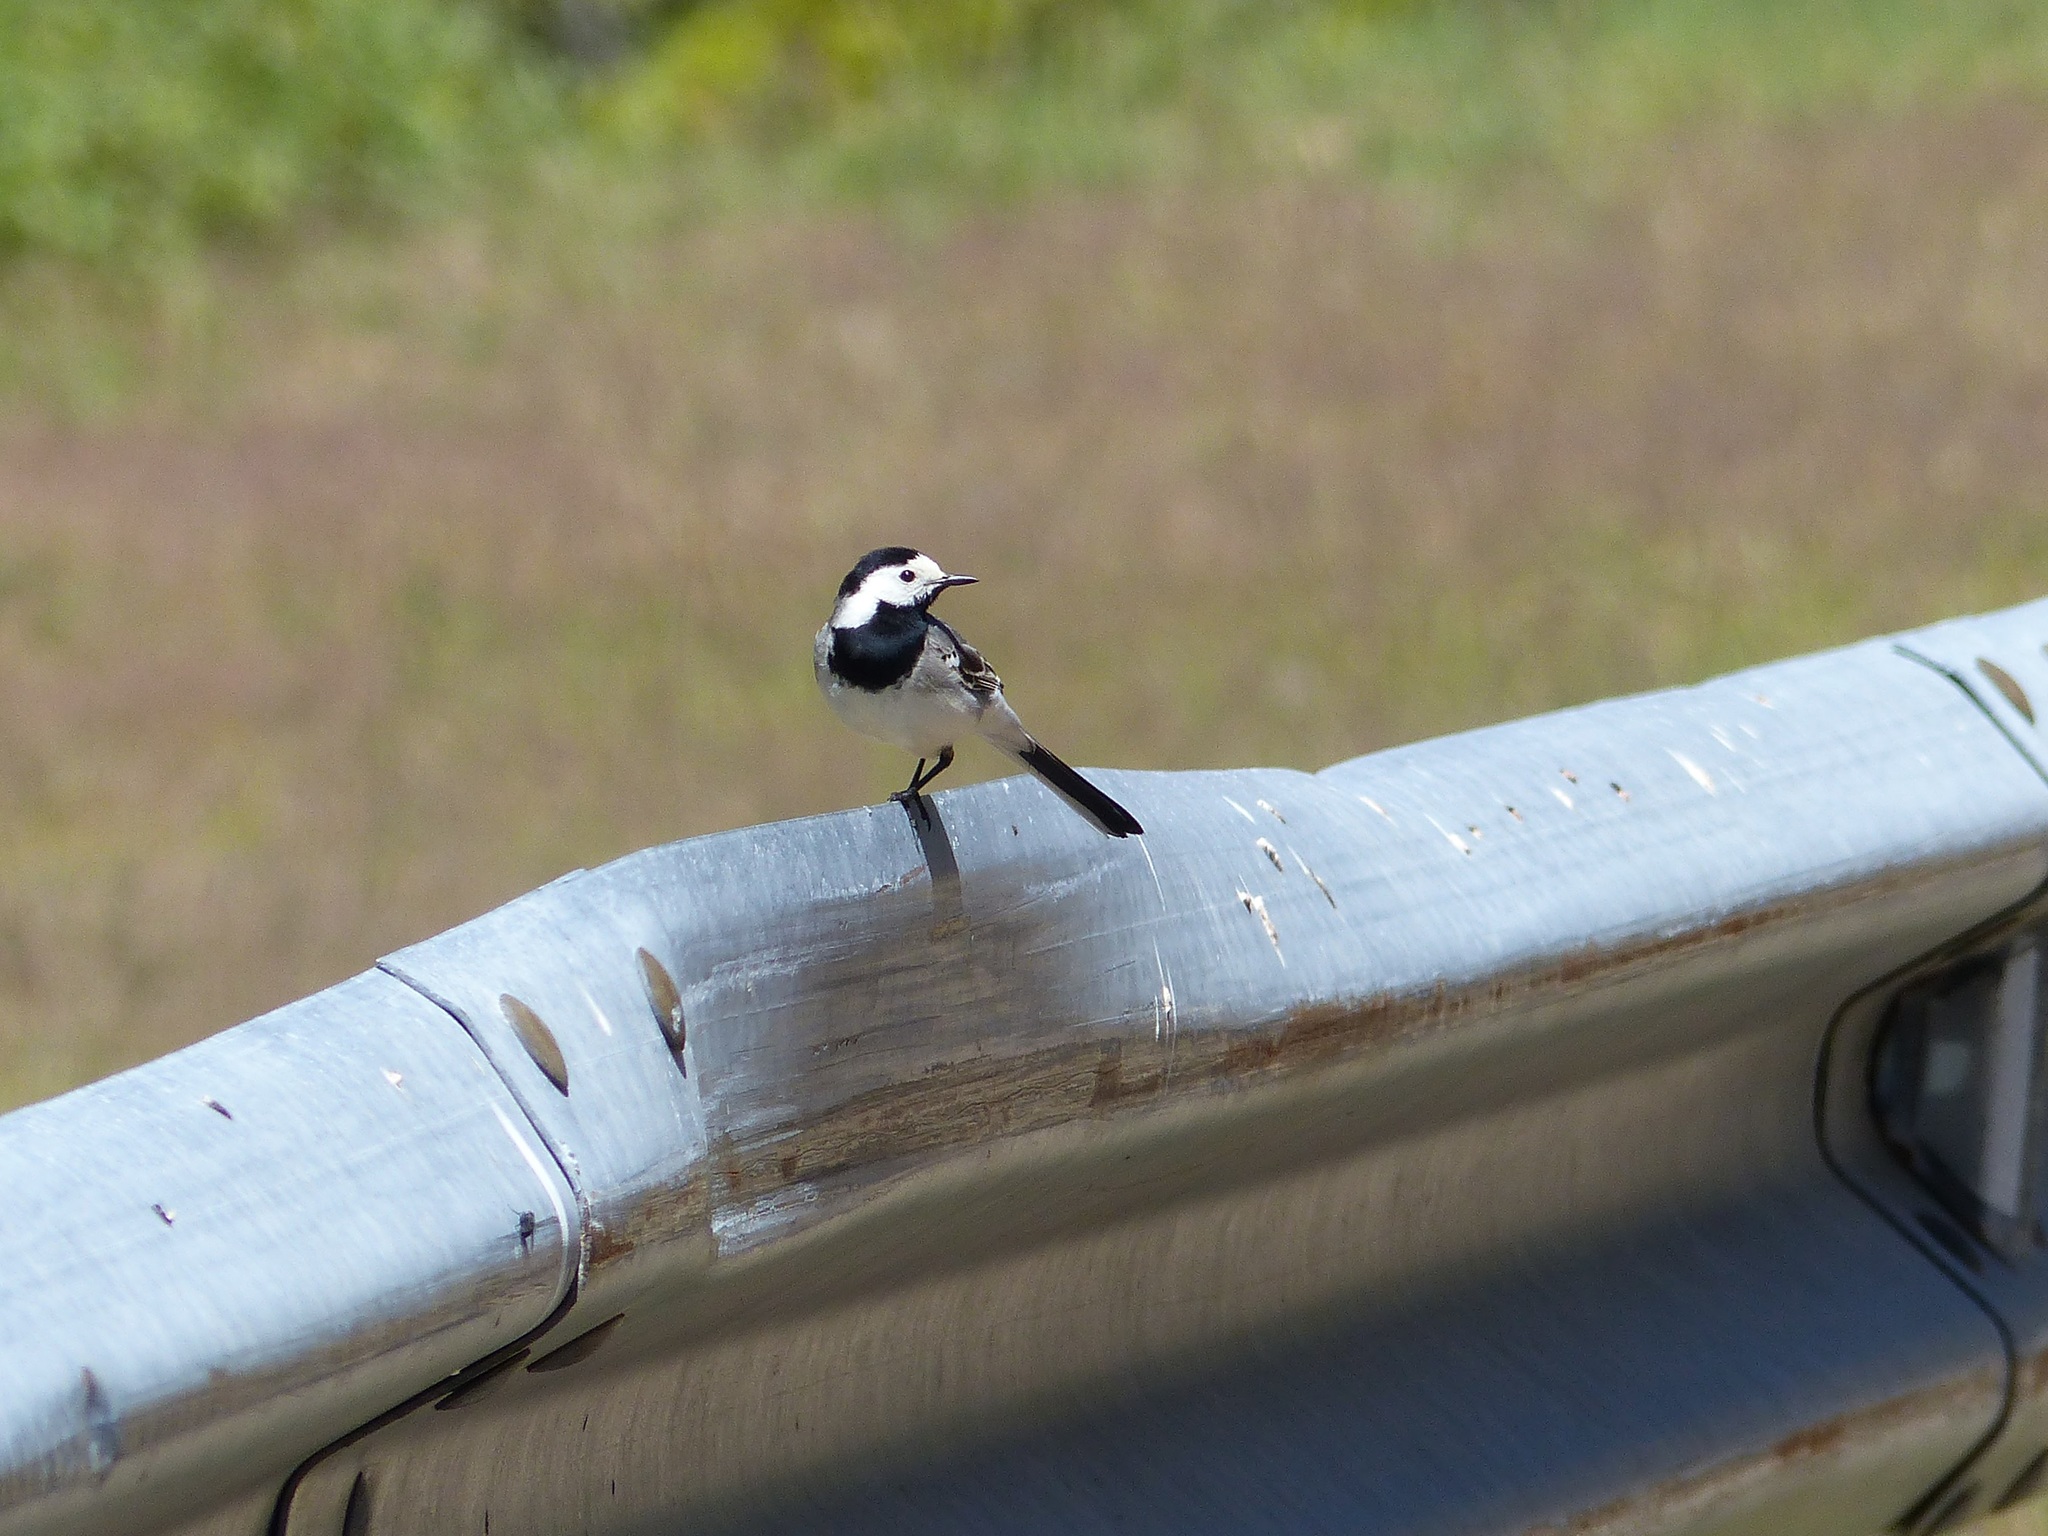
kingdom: Animalia
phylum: Chordata
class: Aves
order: Passeriformes
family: Motacillidae
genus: Motacilla
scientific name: Motacilla alba
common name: White wagtail
